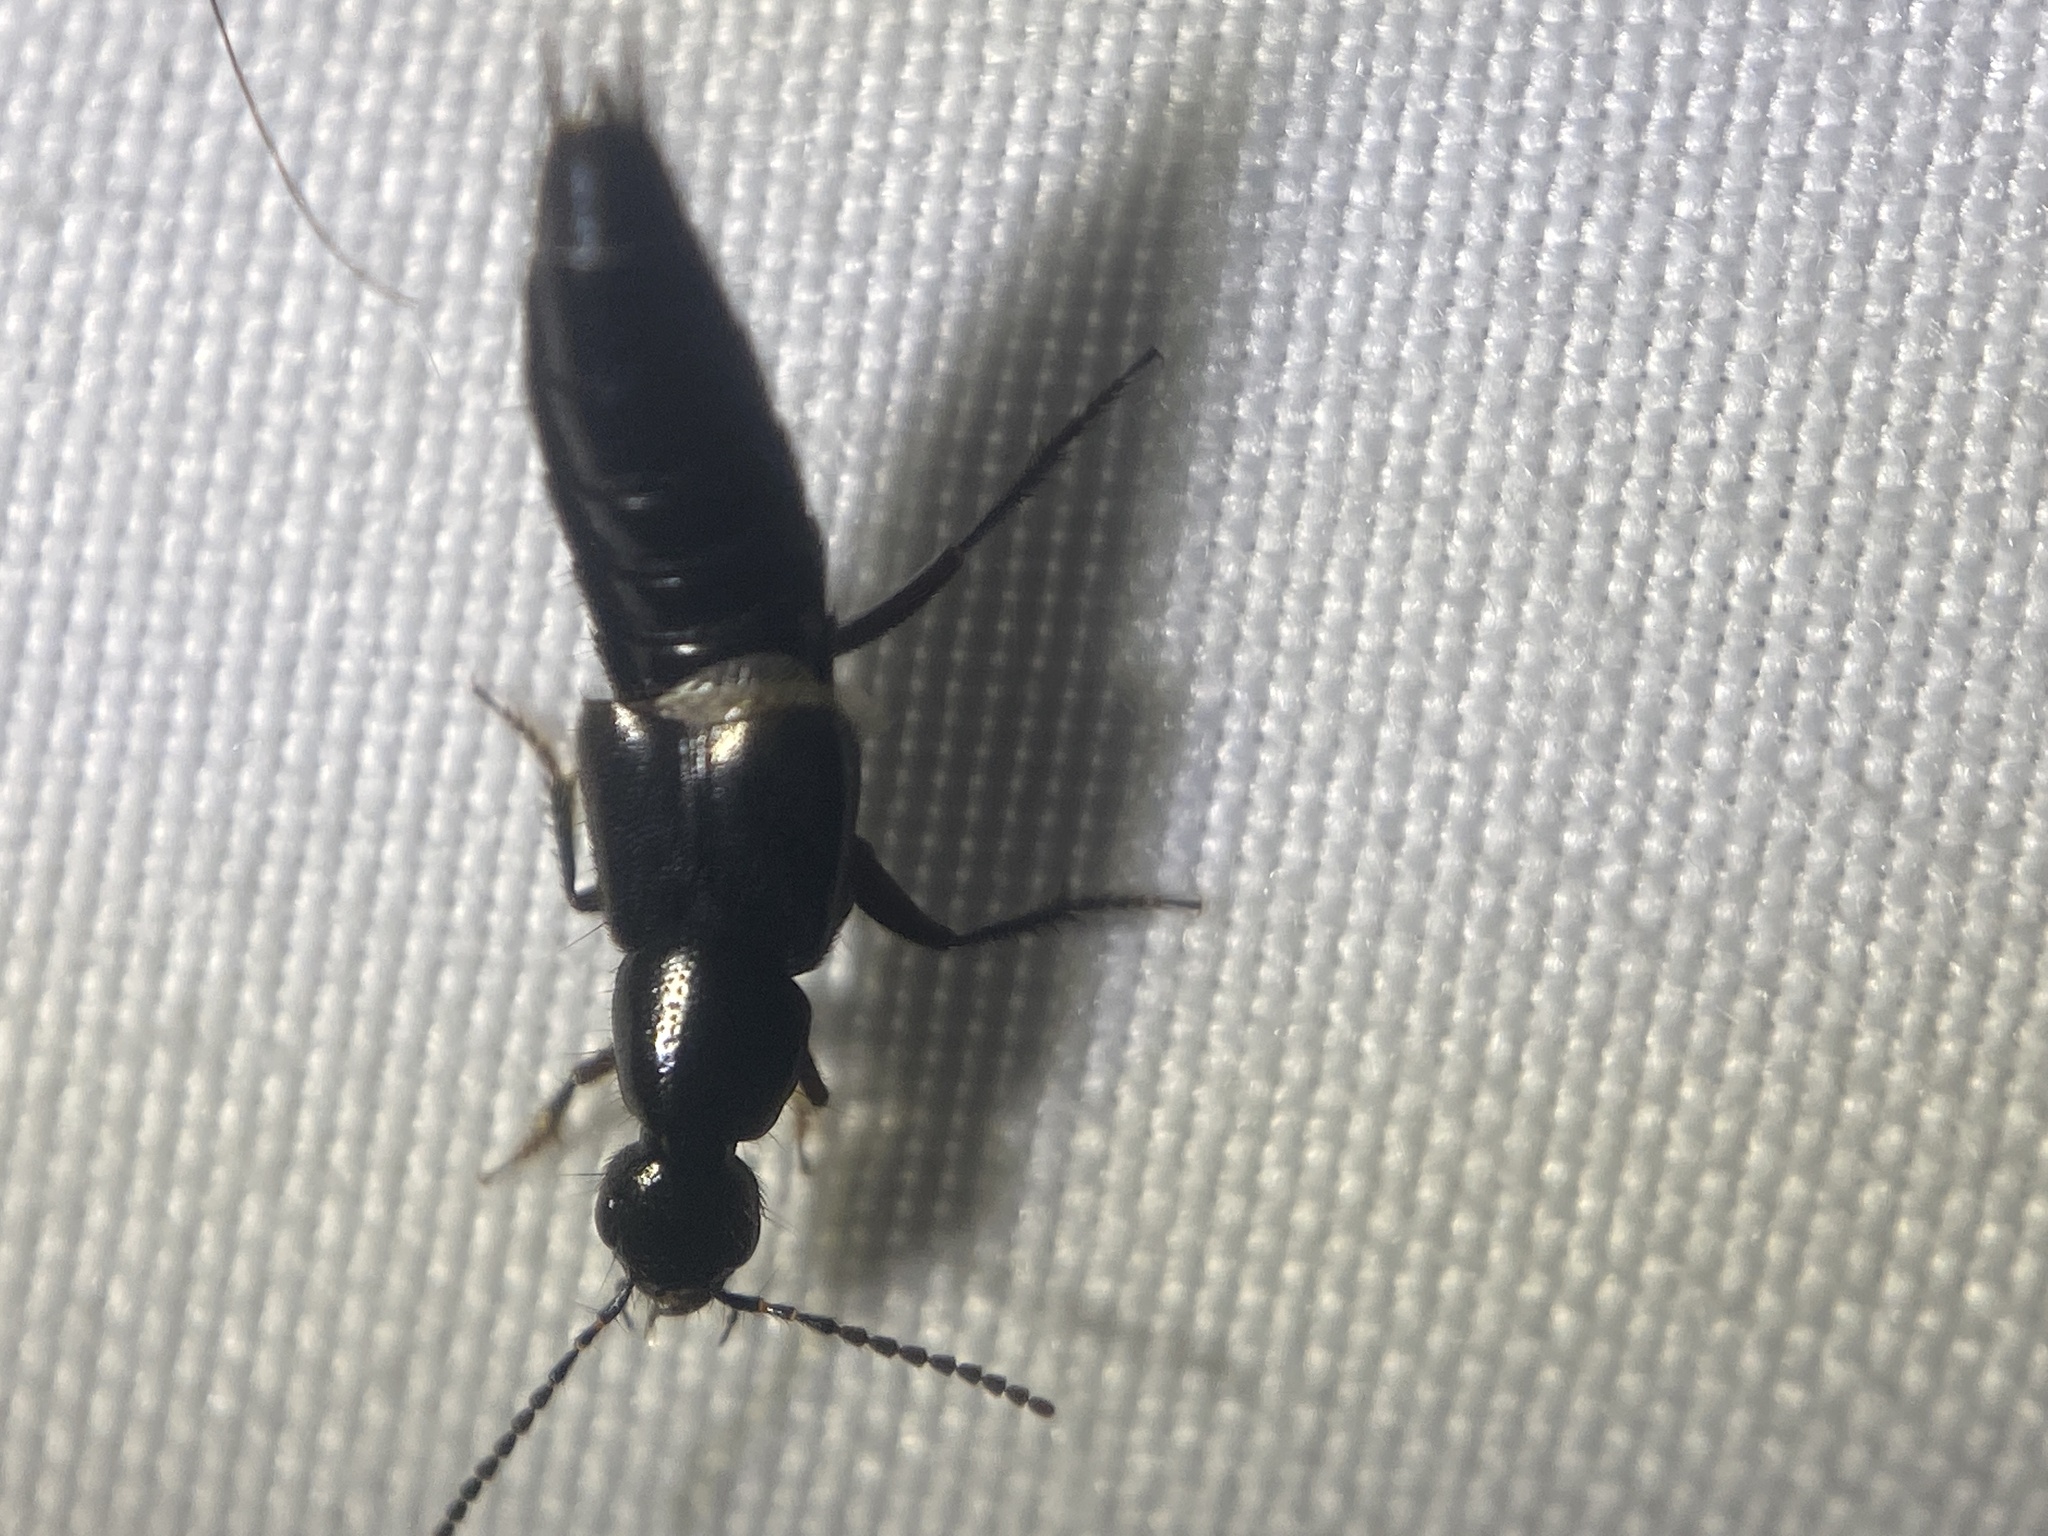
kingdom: Animalia
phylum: Arthropoda
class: Insecta
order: Coleoptera
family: Staphylinidae
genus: Philonthus
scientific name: Philonthus vulgatus
